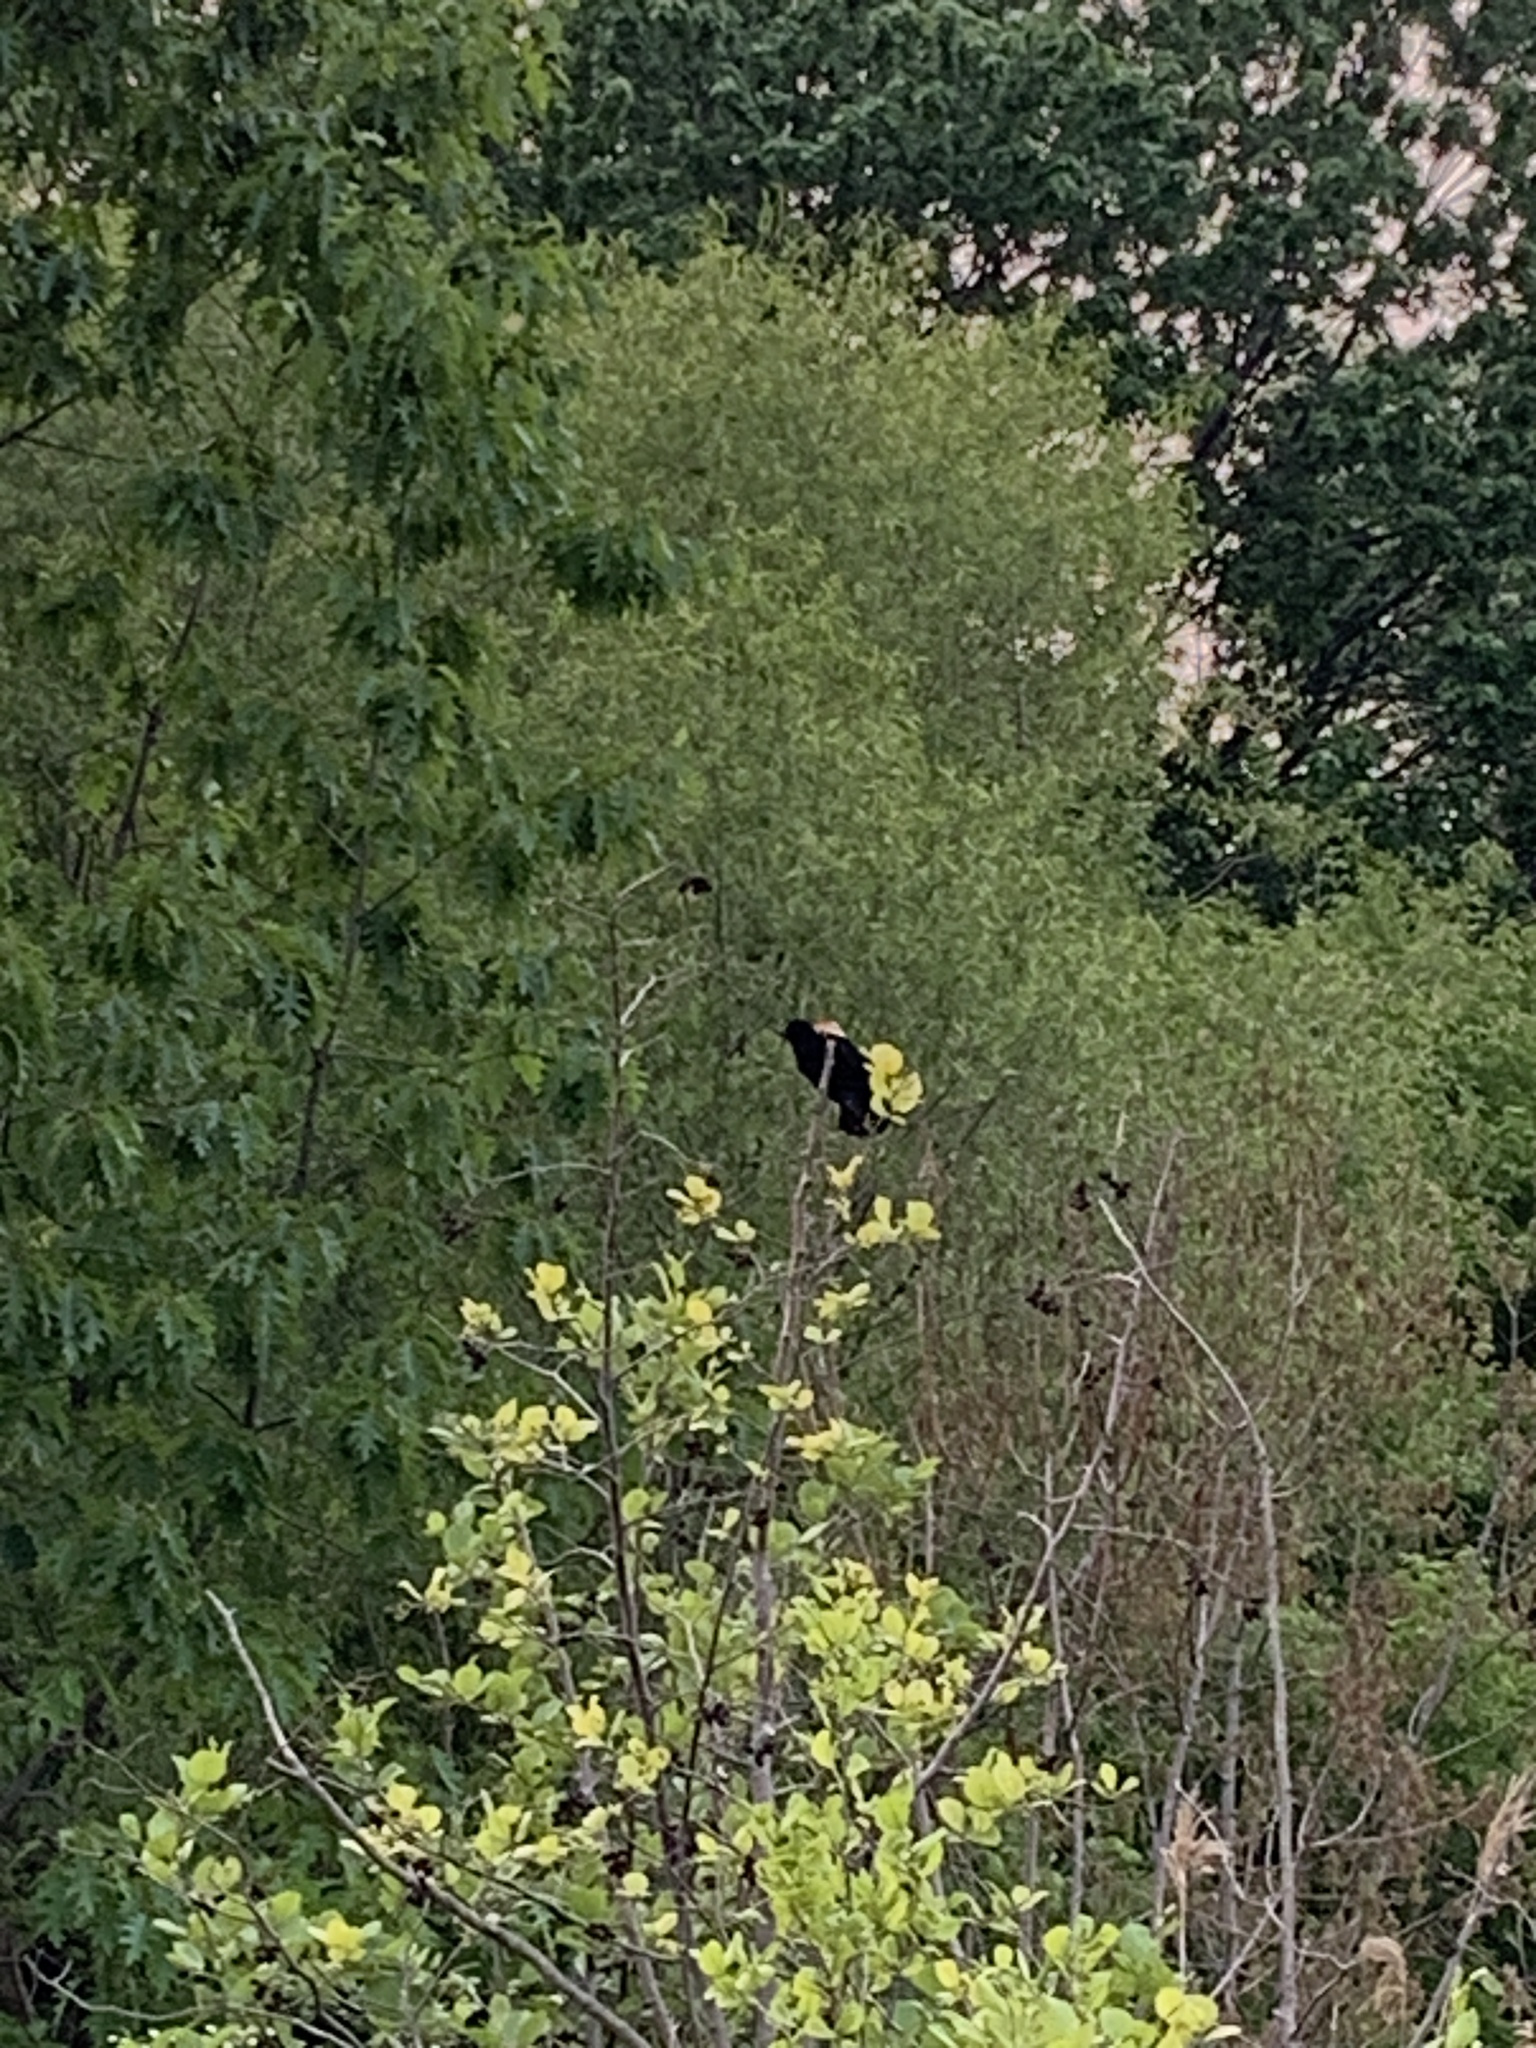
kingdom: Animalia
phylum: Chordata
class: Aves
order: Passeriformes
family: Icteridae
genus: Agelaius
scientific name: Agelaius phoeniceus
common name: Red-winged blackbird
